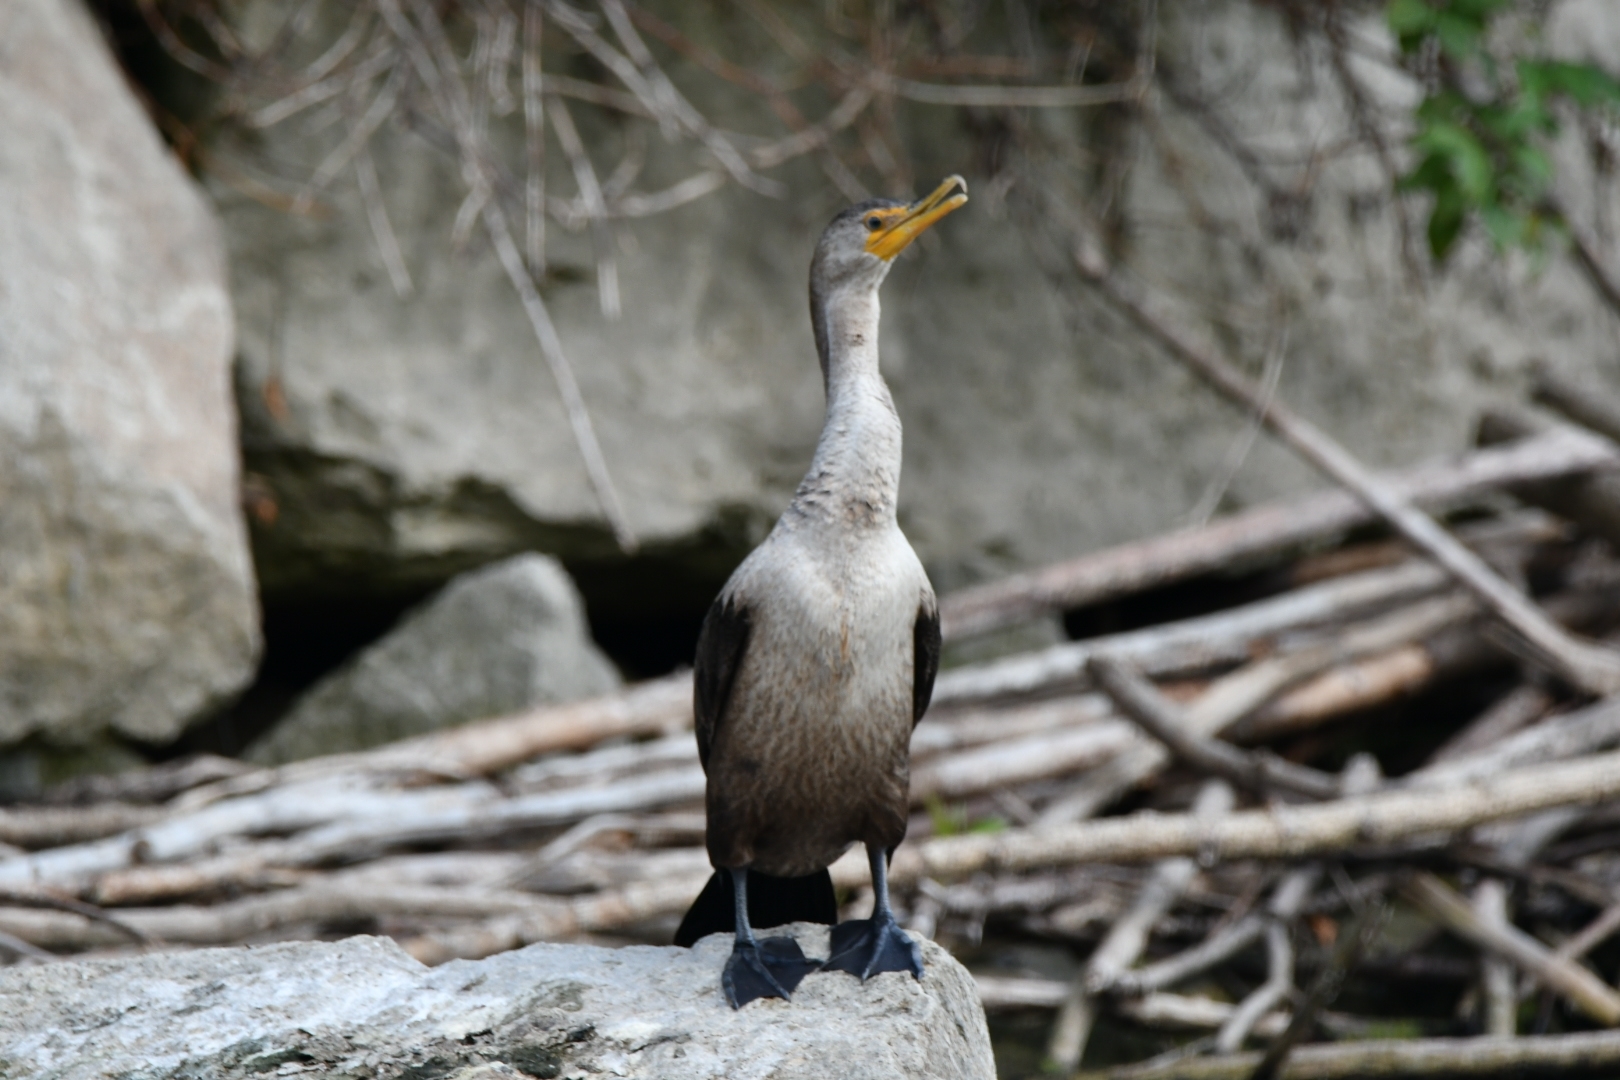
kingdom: Animalia
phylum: Chordata
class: Aves
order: Suliformes
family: Phalacrocoracidae
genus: Phalacrocorax
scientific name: Phalacrocorax auritus
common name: Double-crested cormorant
